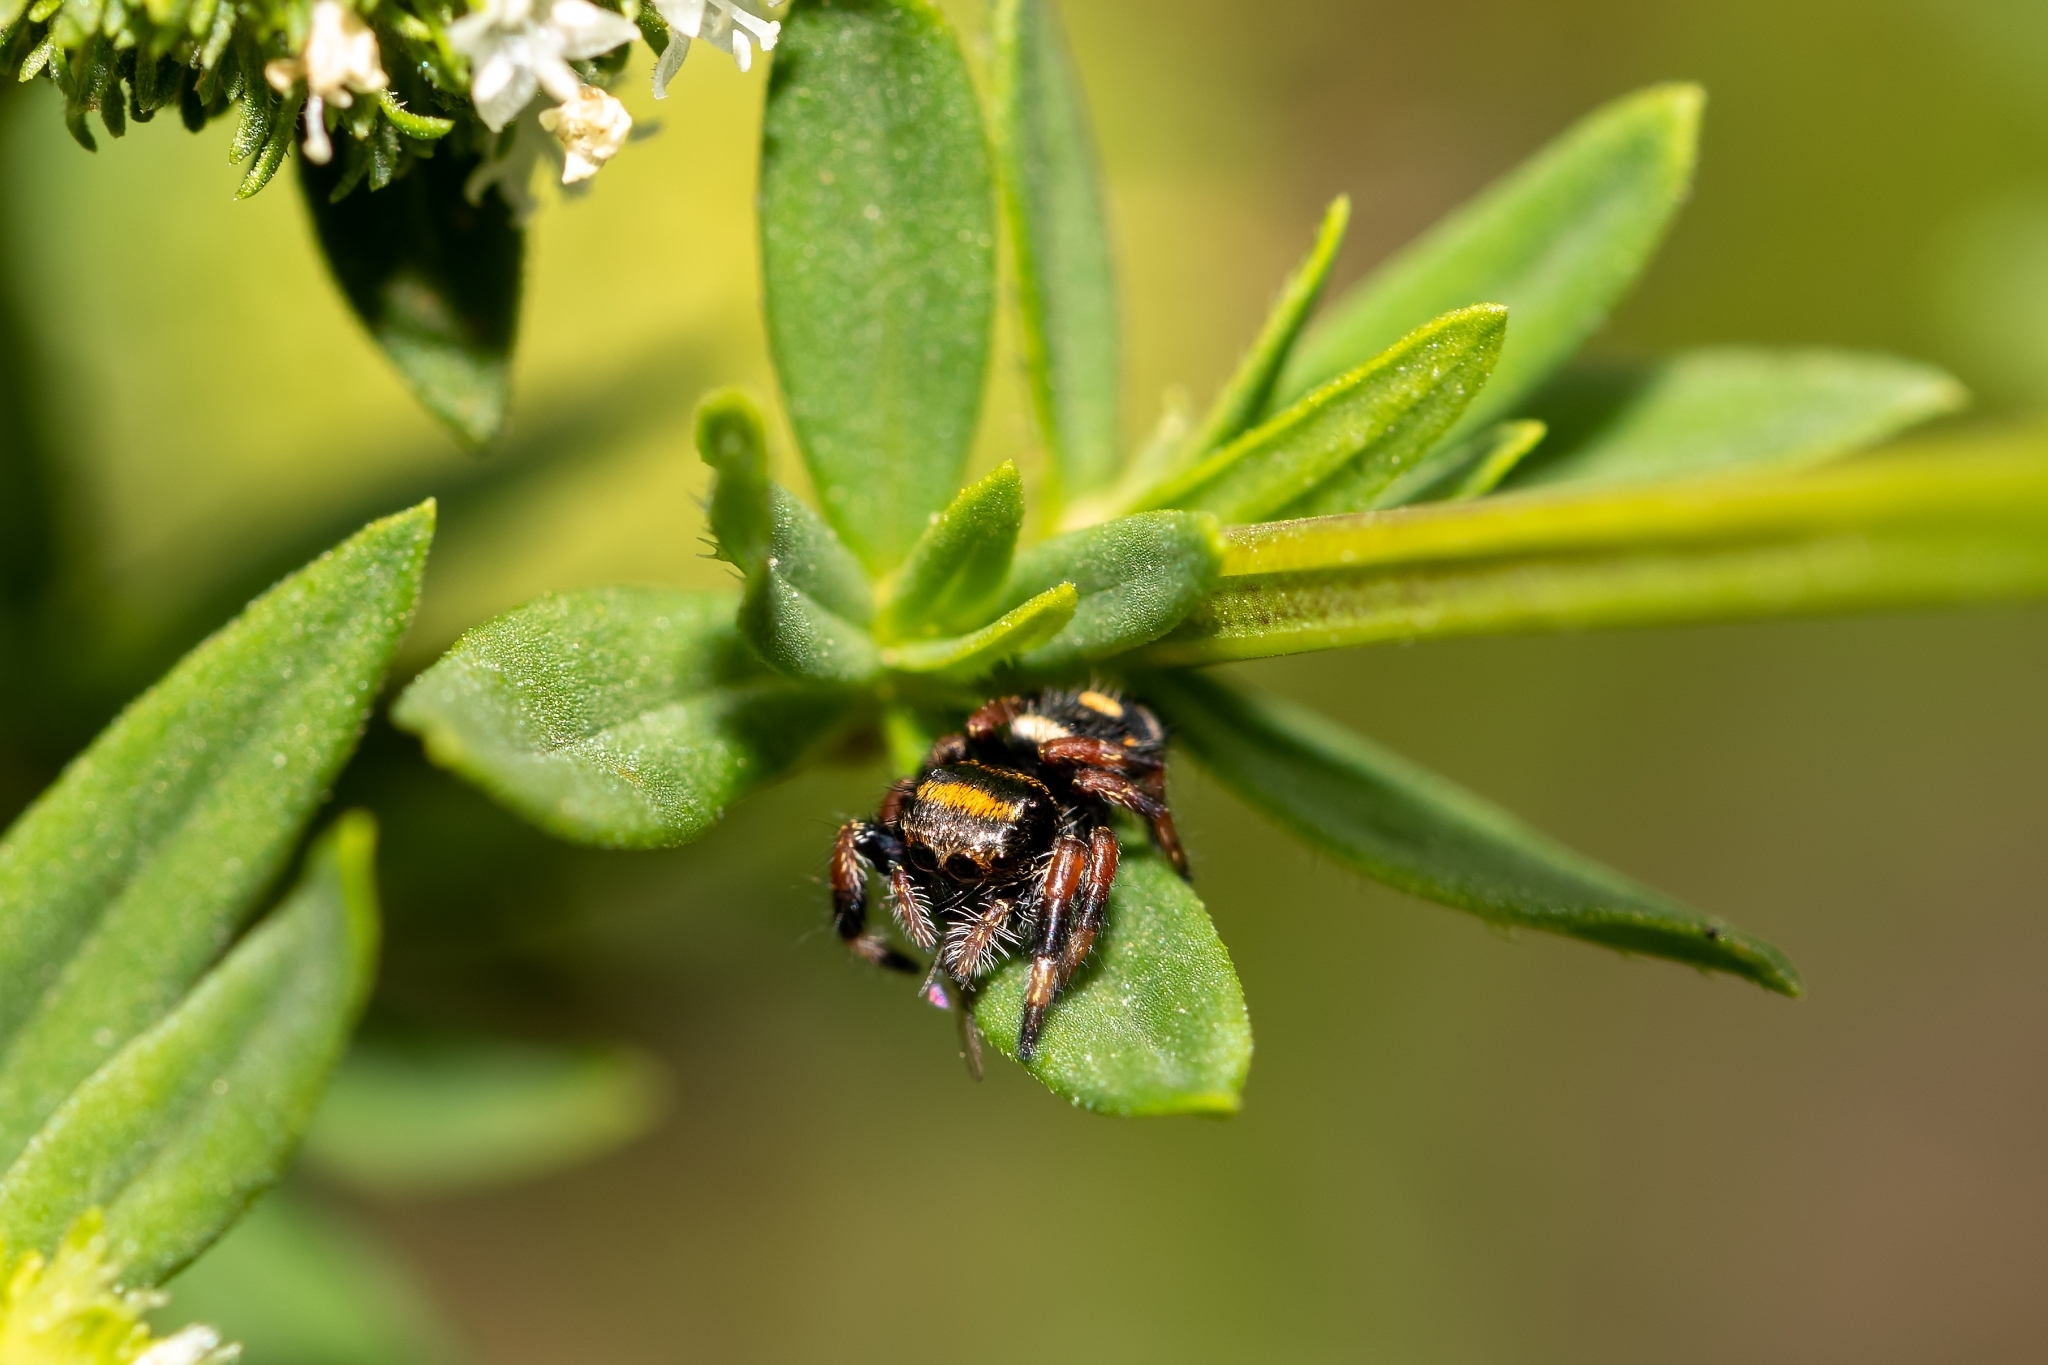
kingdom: Animalia
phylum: Arthropoda
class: Arachnida
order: Araneae
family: Salticidae
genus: Phidippus
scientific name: Phidippus regius
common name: Regal jumper
